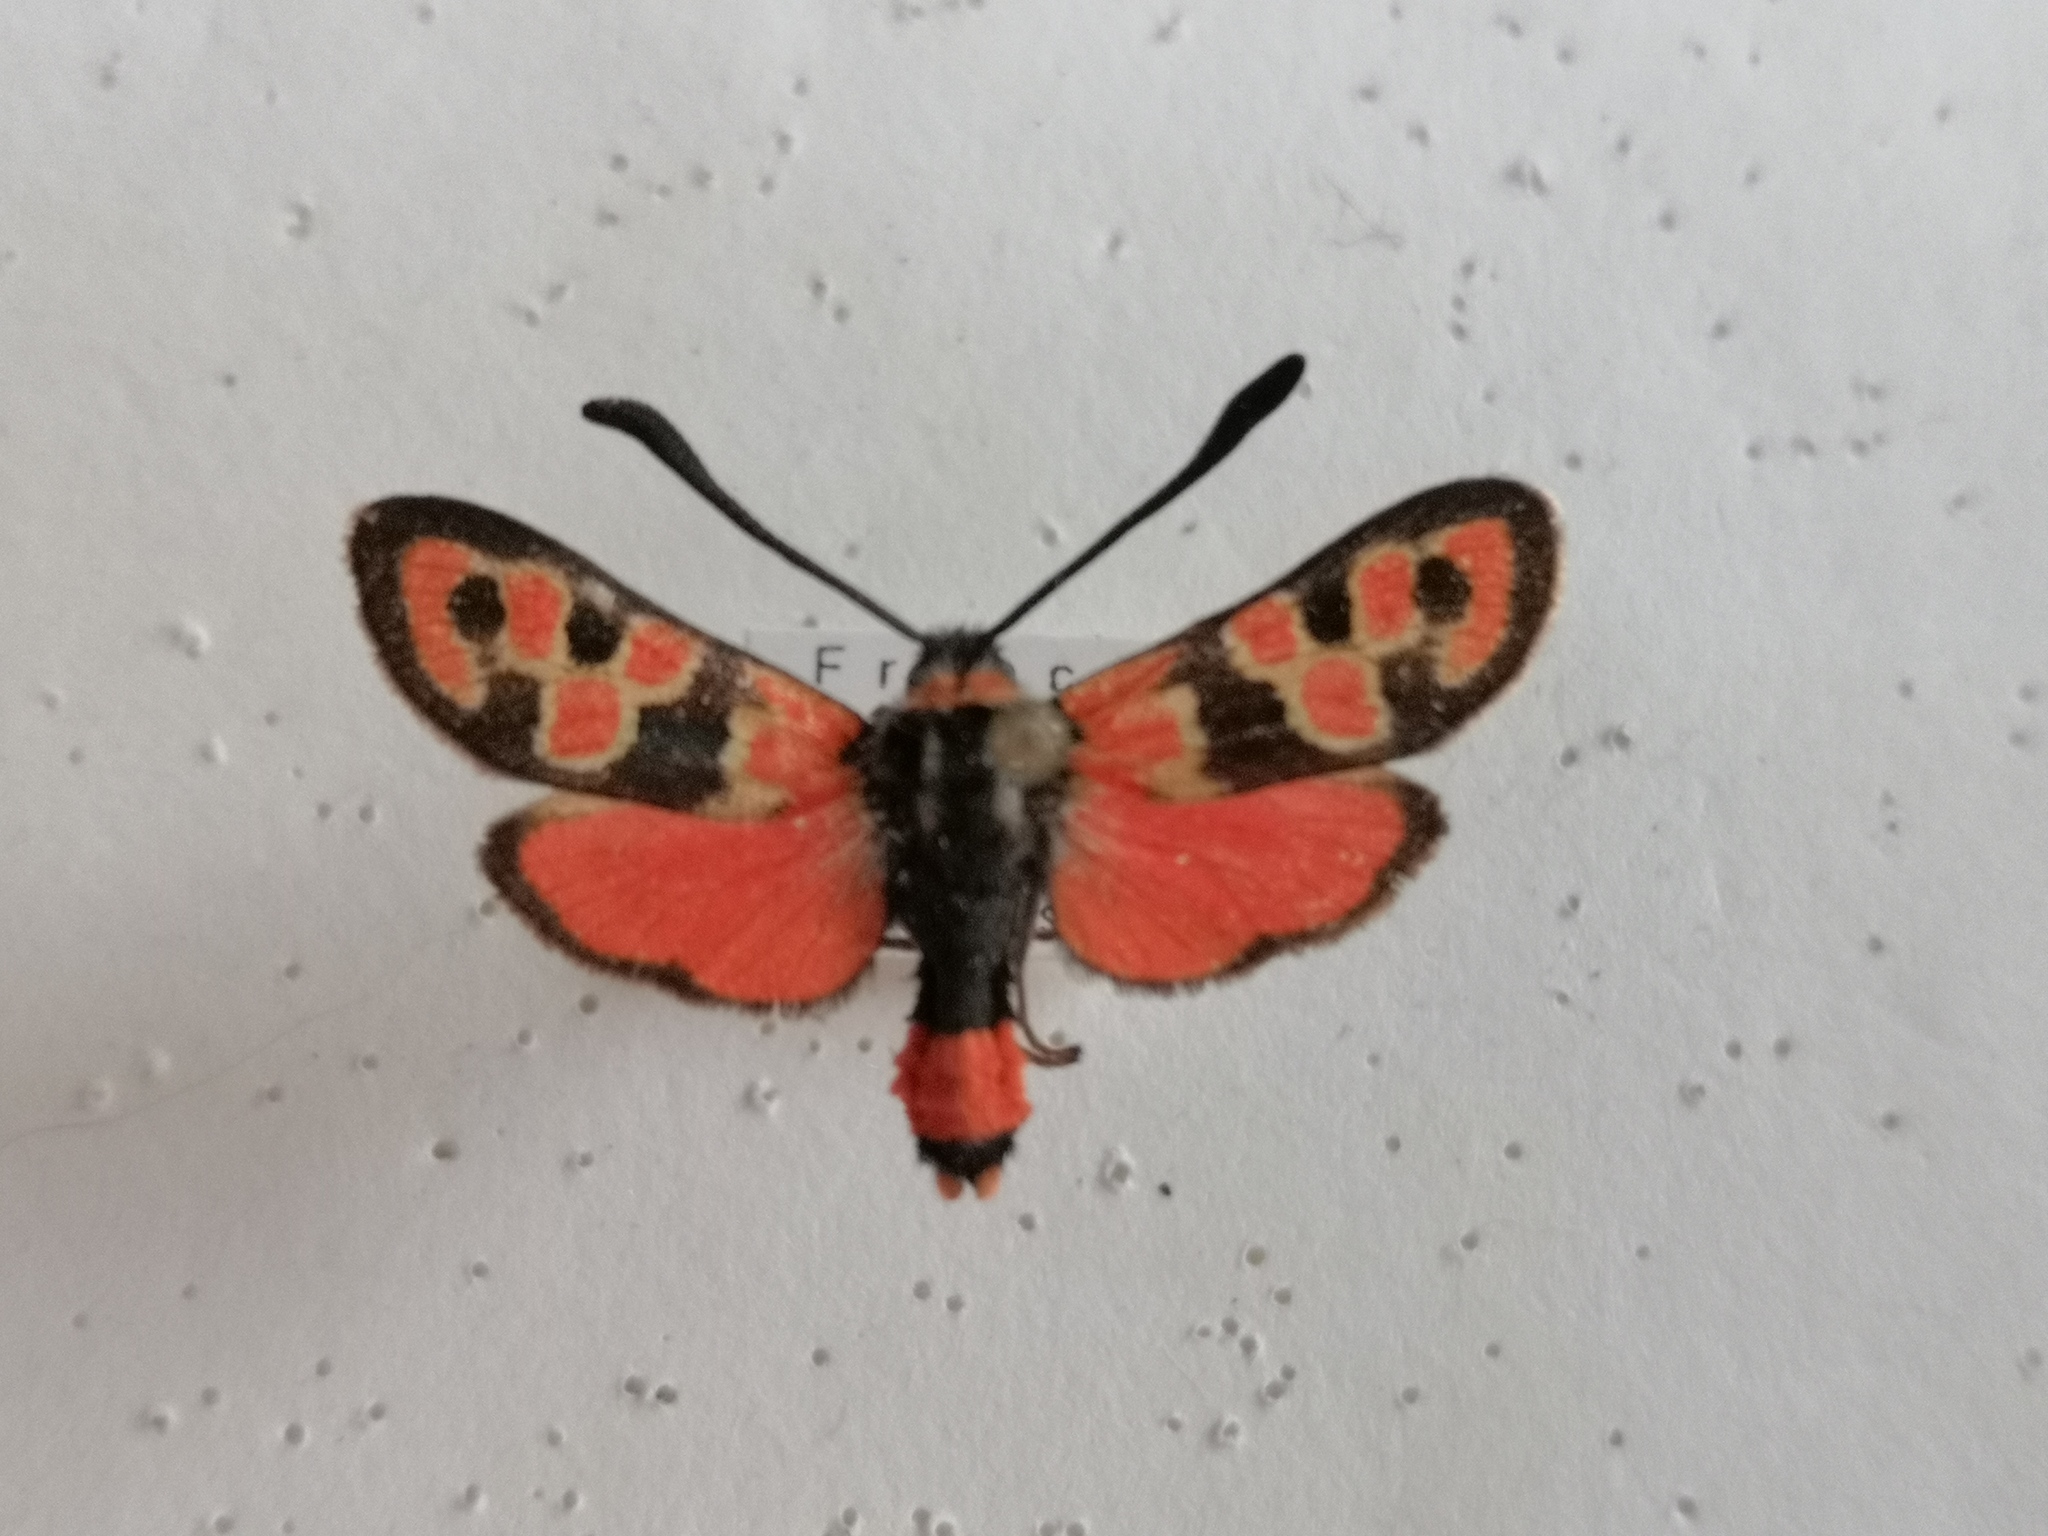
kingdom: Animalia
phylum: Arthropoda
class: Insecta
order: Lepidoptera
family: Zygaenidae
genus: Zygaena
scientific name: Zygaena fausta
